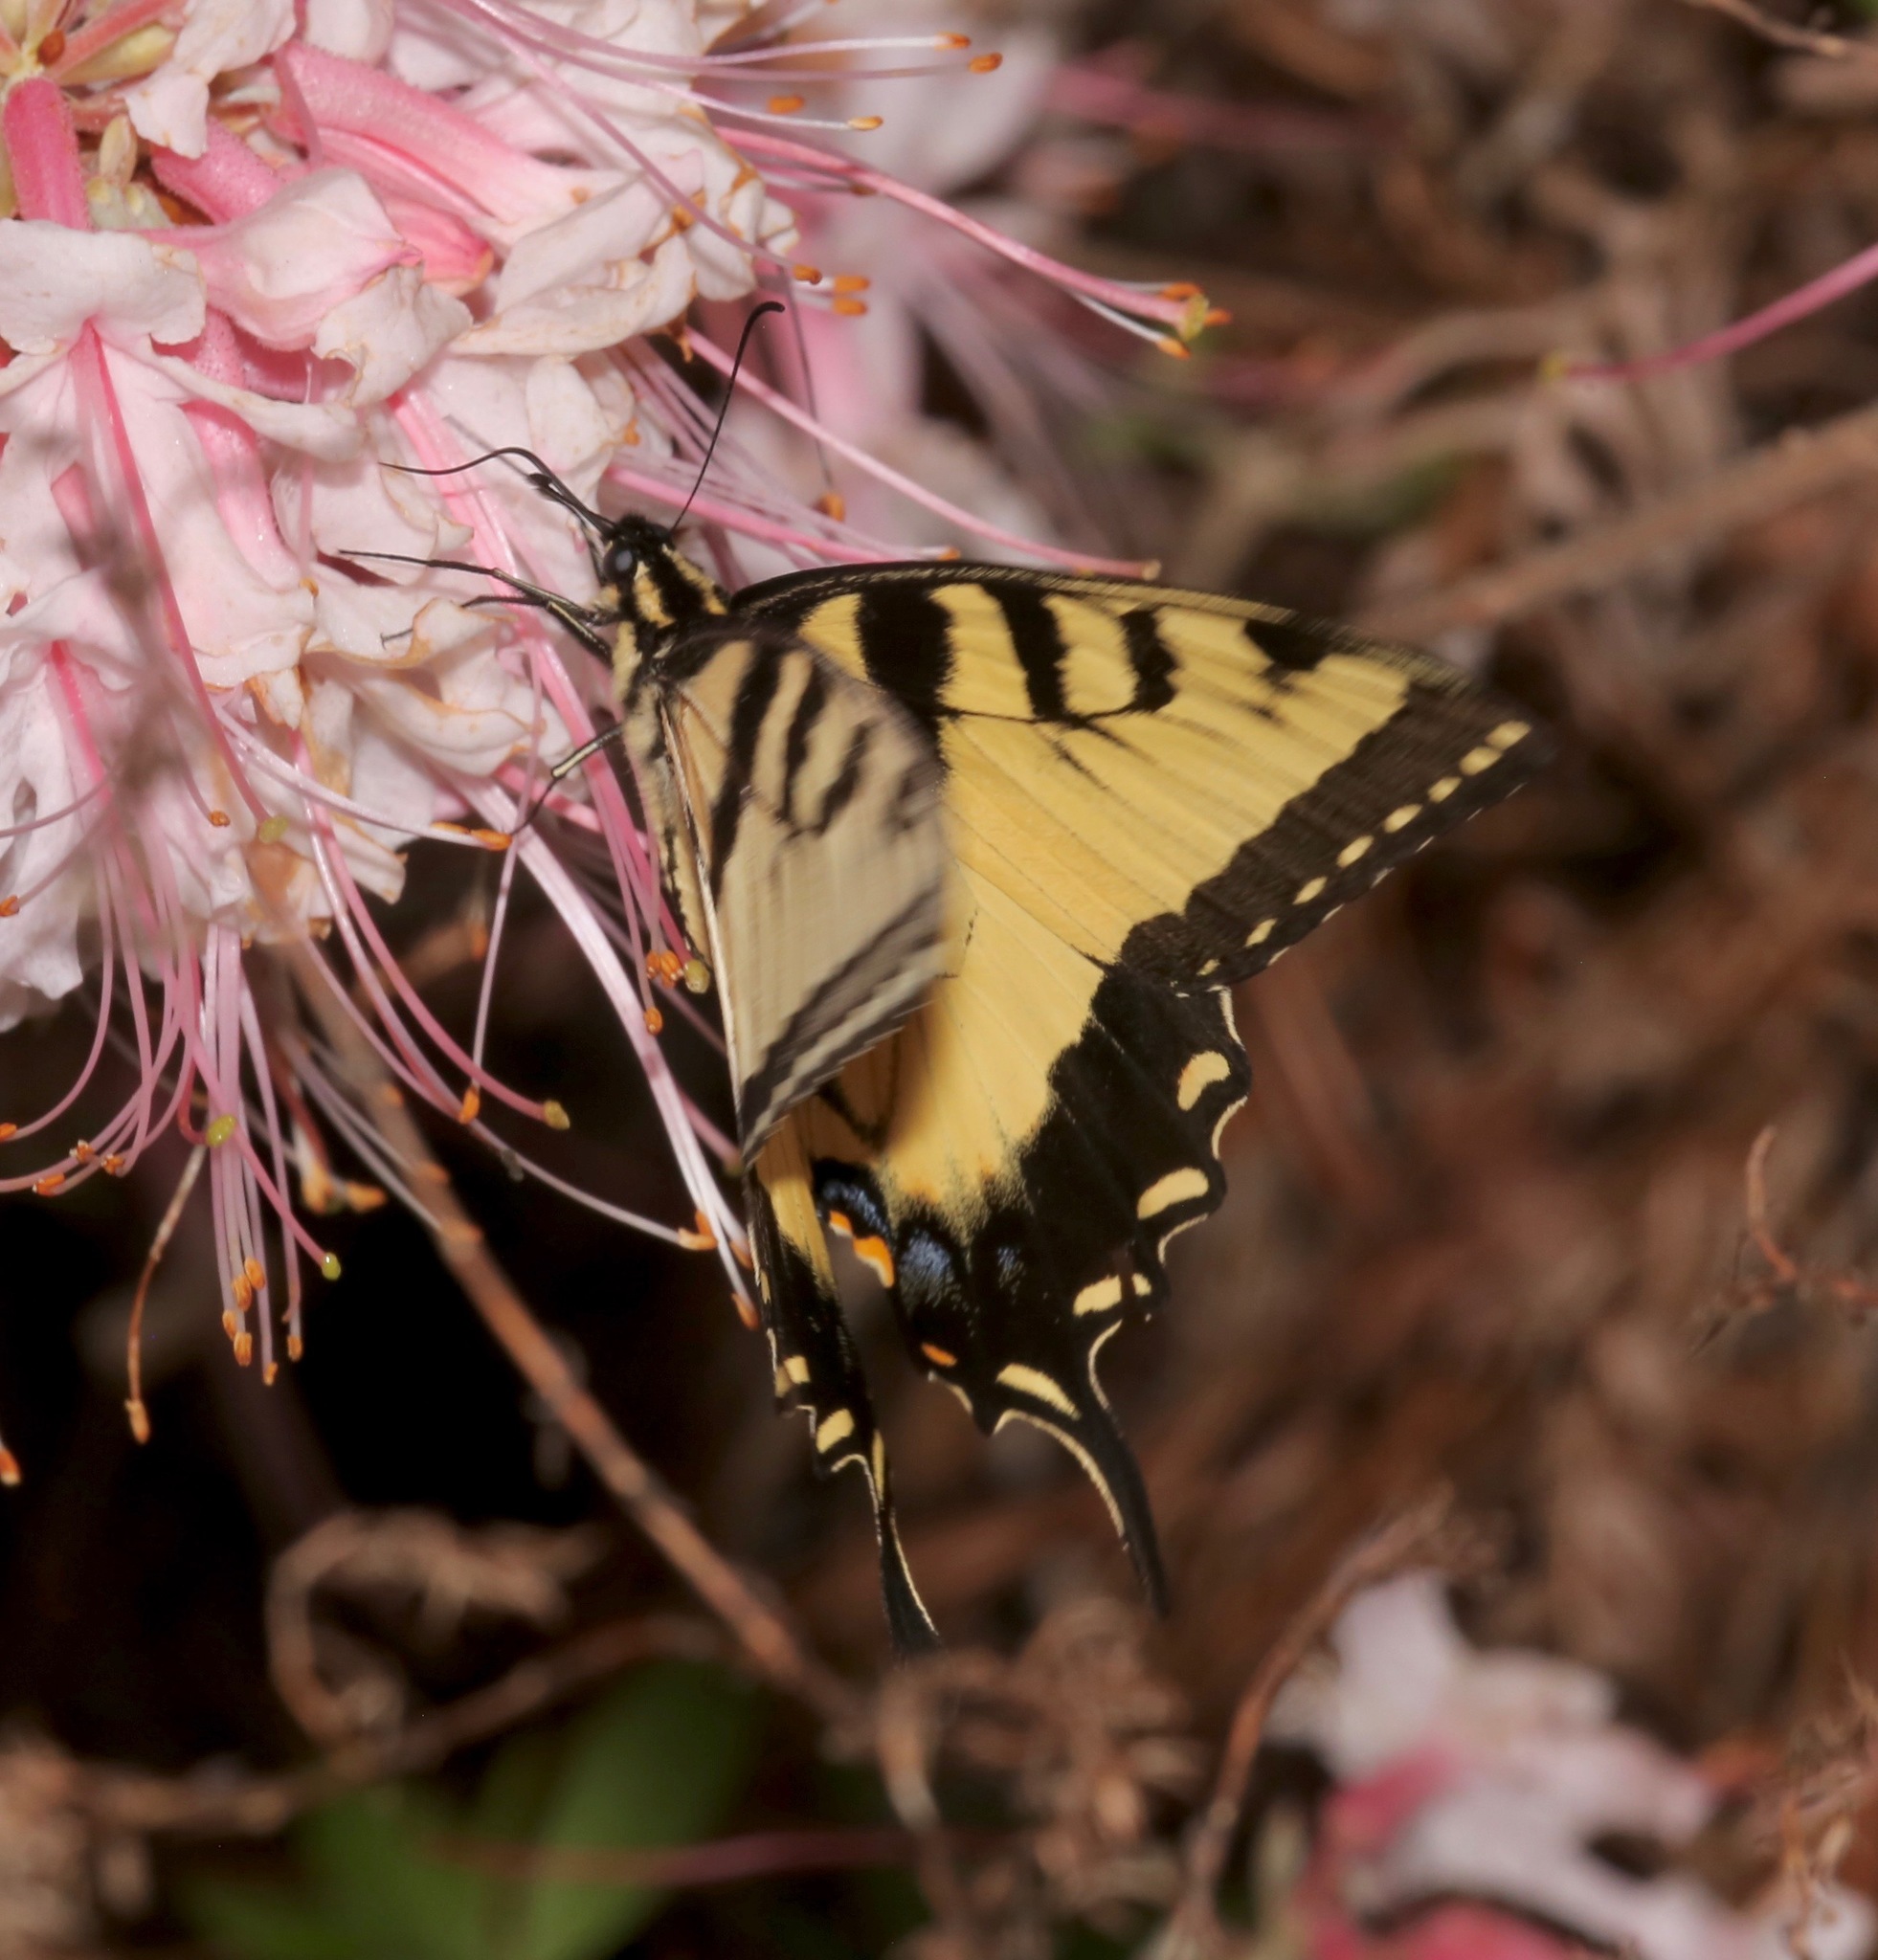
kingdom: Animalia
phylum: Arthropoda
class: Insecta
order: Lepidoptera
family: Papilionidae
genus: Papilio
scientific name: Papilio glaucus
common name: Tiger swallowtail
